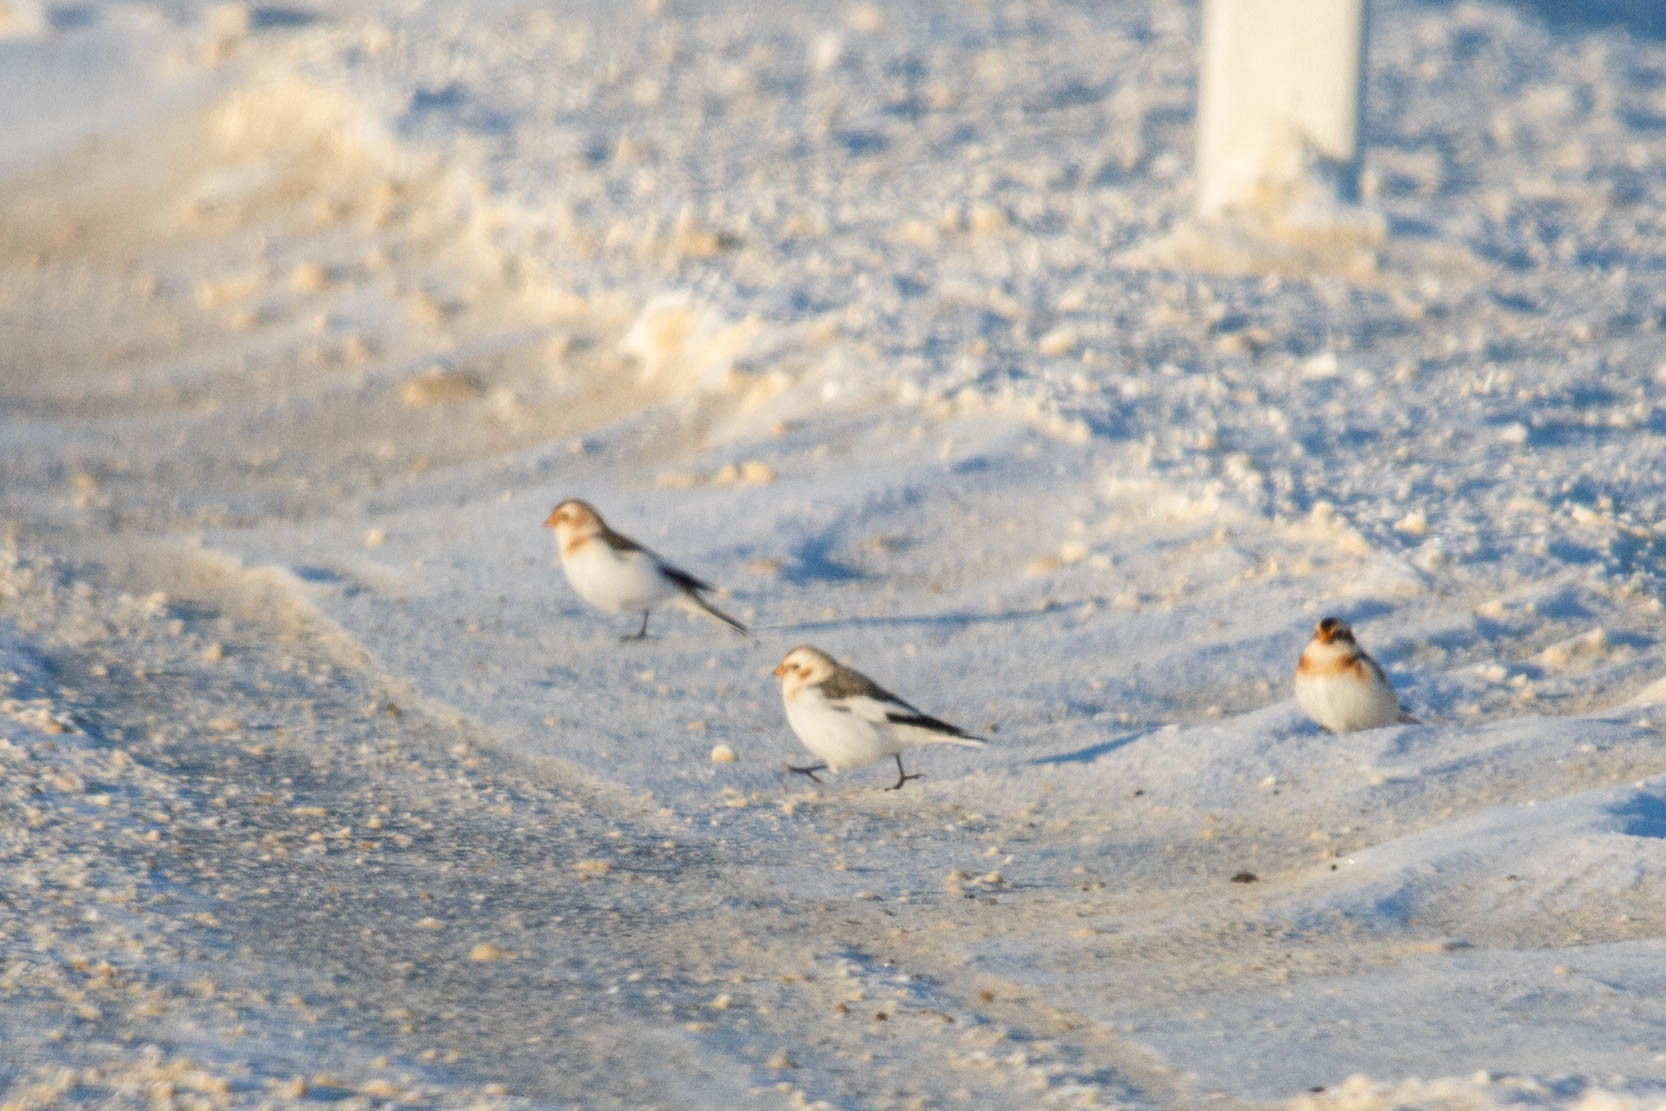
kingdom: Animalia
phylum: Chordata
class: Aves
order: Passeriformes
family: Calcariidae
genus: Plectrophenax
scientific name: Plectrophenax nivalis
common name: Snow bunting
